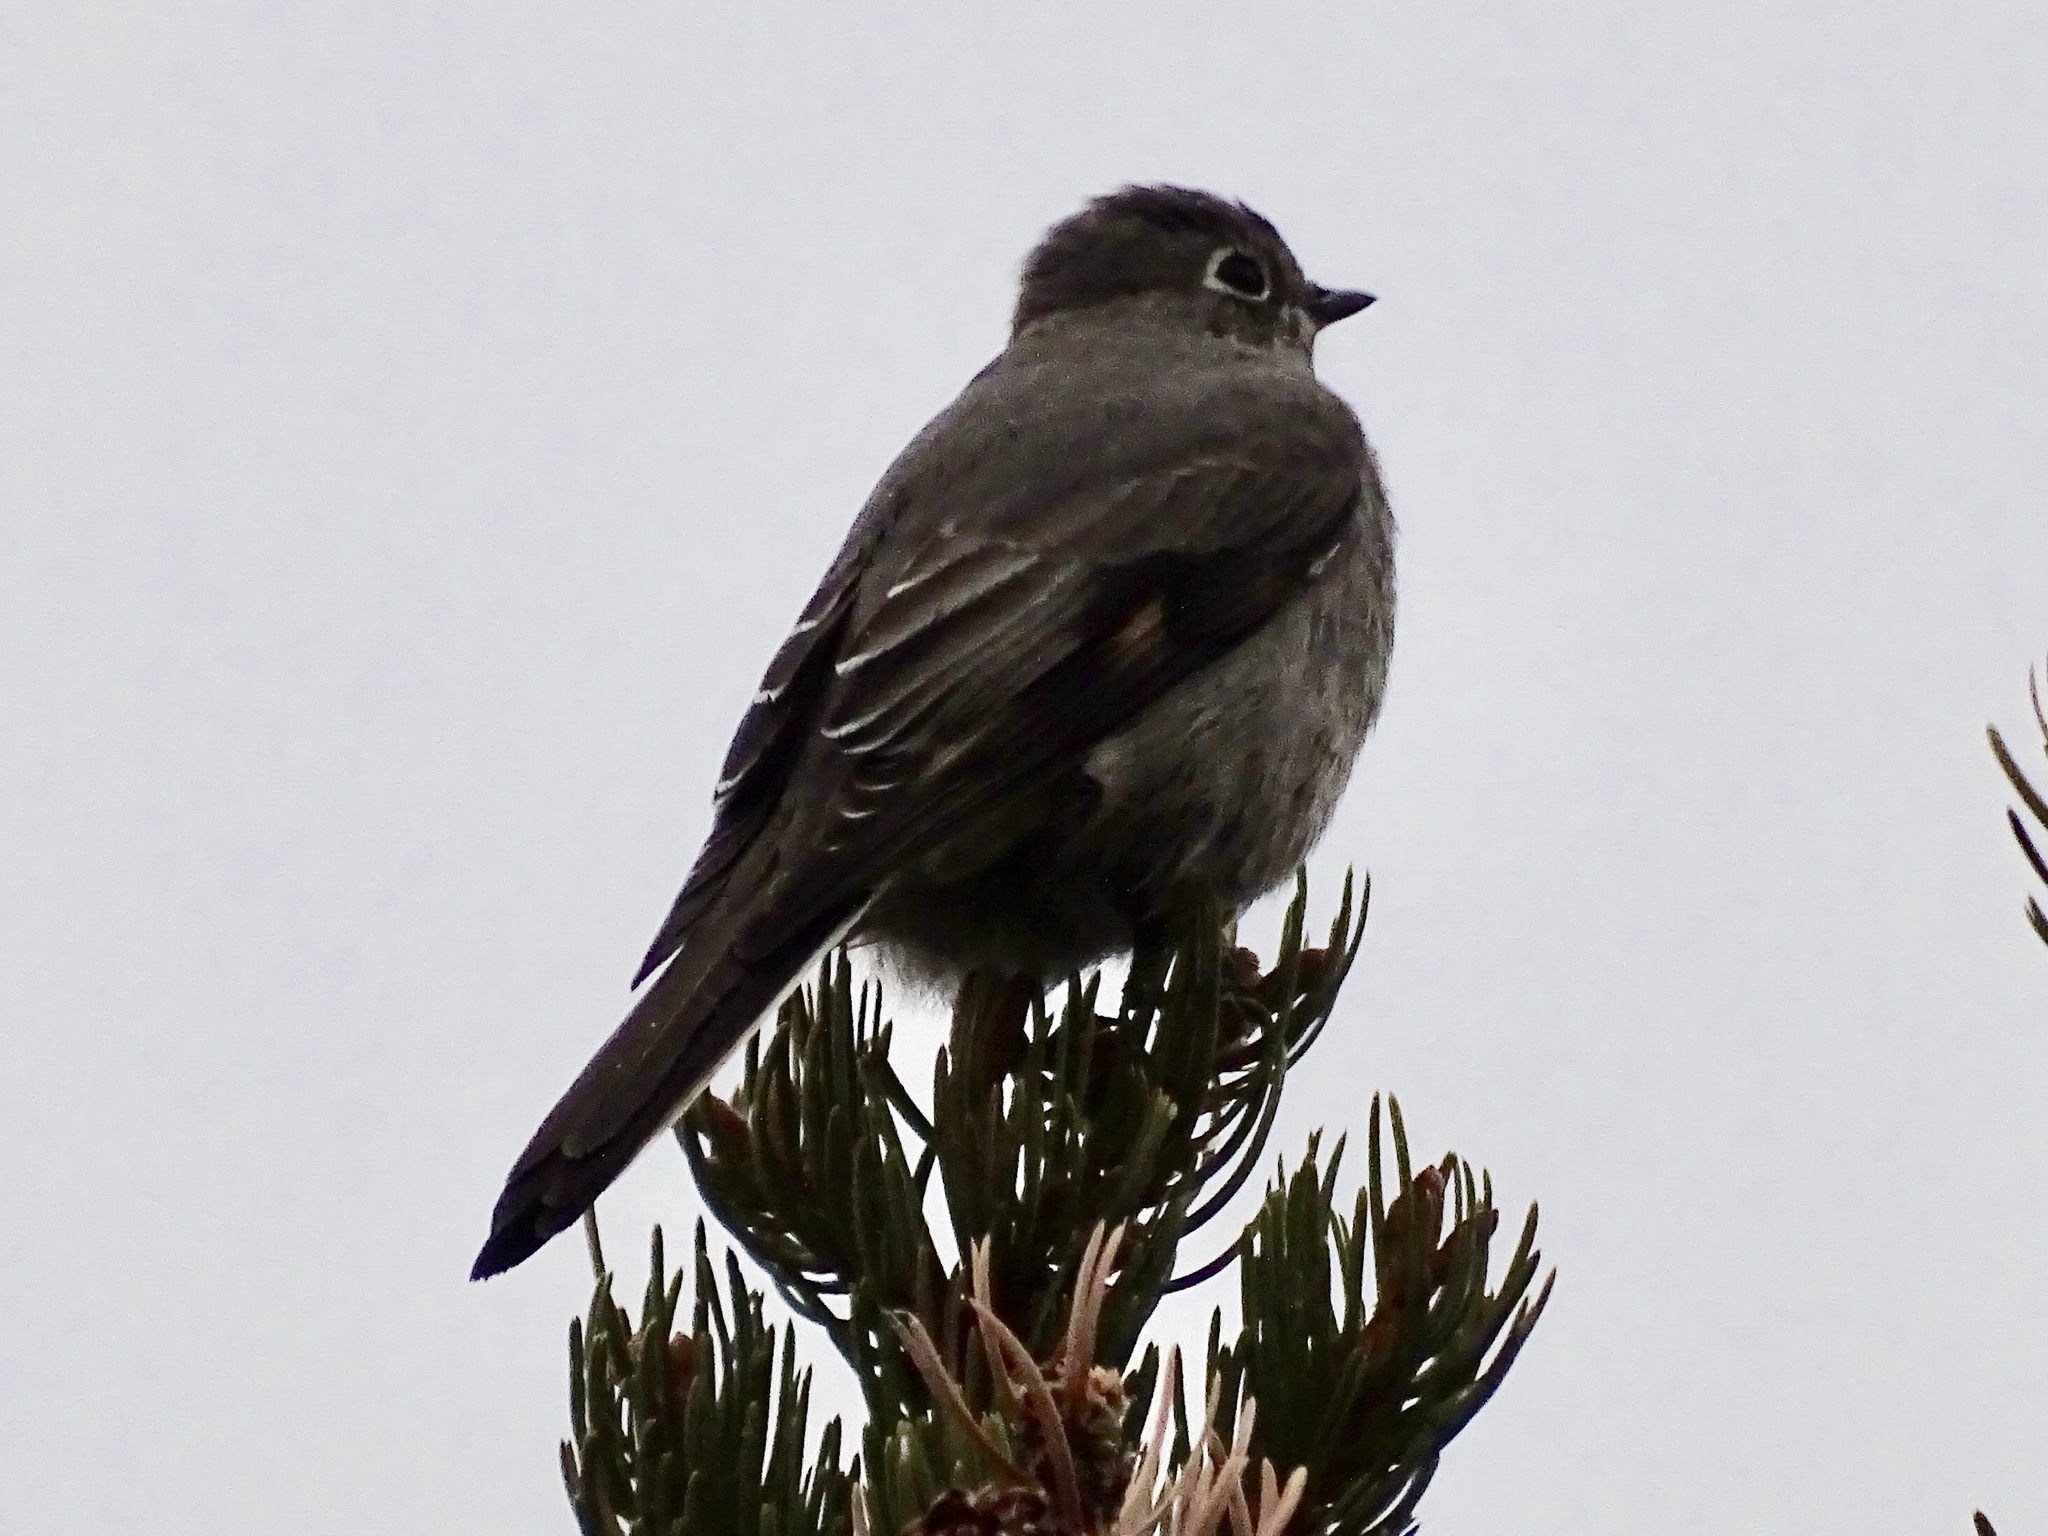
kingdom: Animalia
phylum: Chordata
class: Aves
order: Passeriformes
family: Turdidae
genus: Myadestes
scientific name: Myadestes townsendi
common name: Townsend's solitaire
